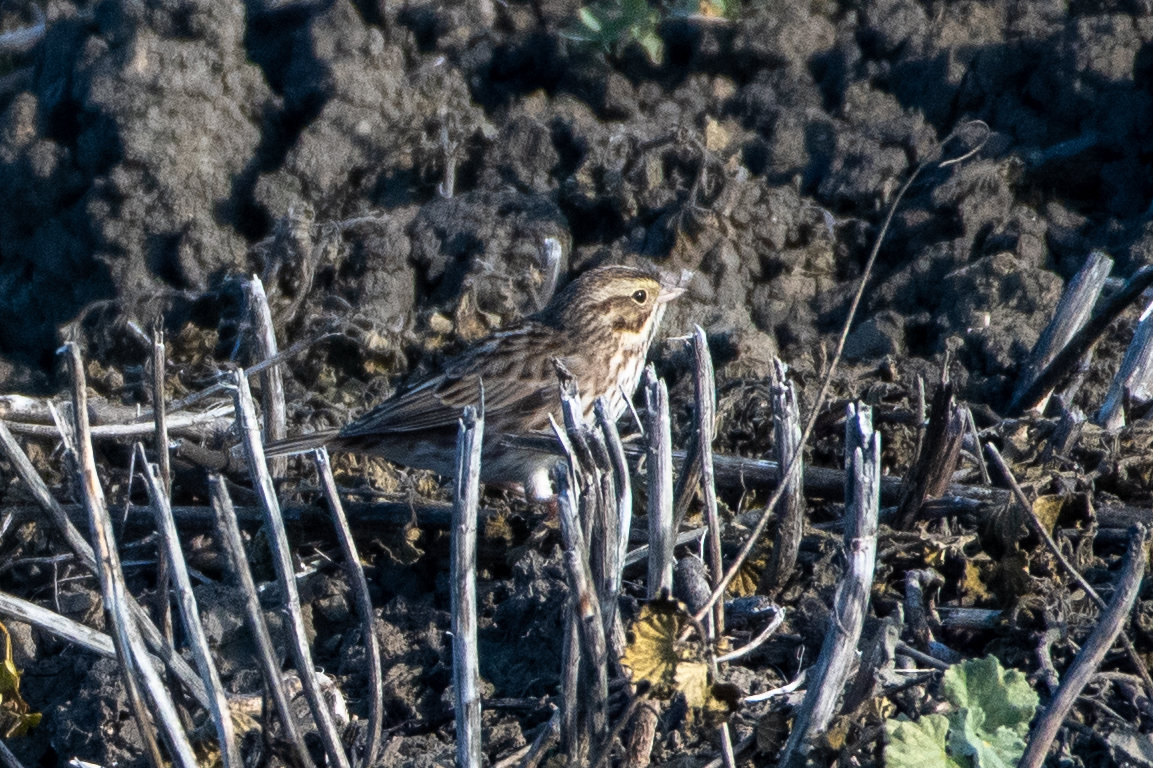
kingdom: Animalia
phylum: Chordata
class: Aves
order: Passeriformes
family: Passerellidae
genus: Passerculus
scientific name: Passerculus sandwichensis
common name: Savannah sparrow
